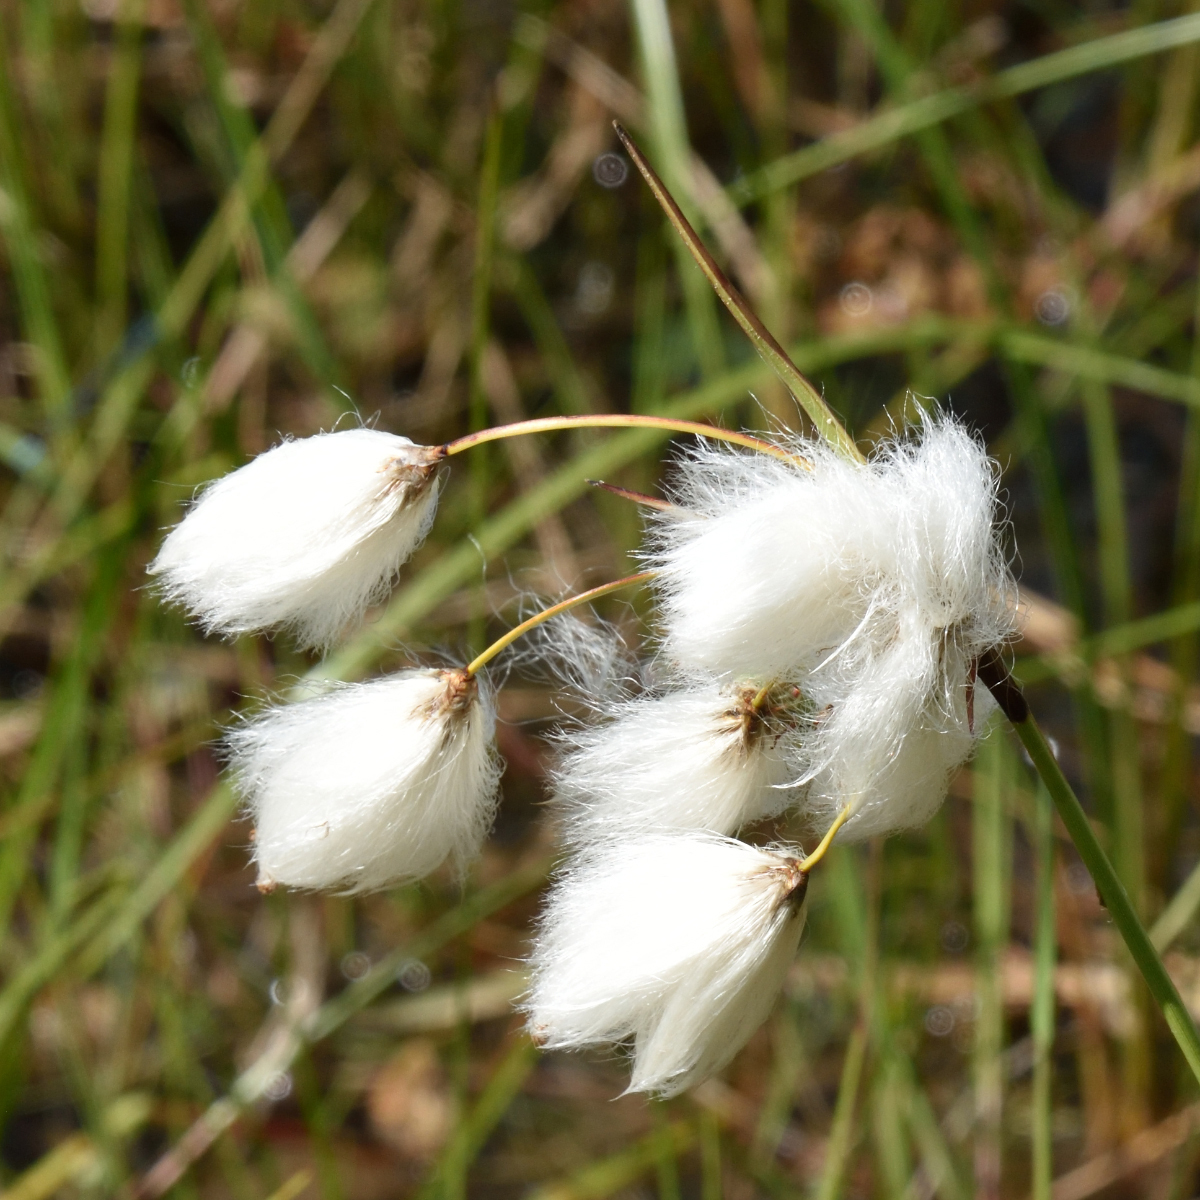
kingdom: Plantae
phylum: Tracheophyta
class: Liliopsida
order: Poales
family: Cyperaceae
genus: Eriophorum
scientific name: Eriophorum angustifolium
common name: Common cottongrass
